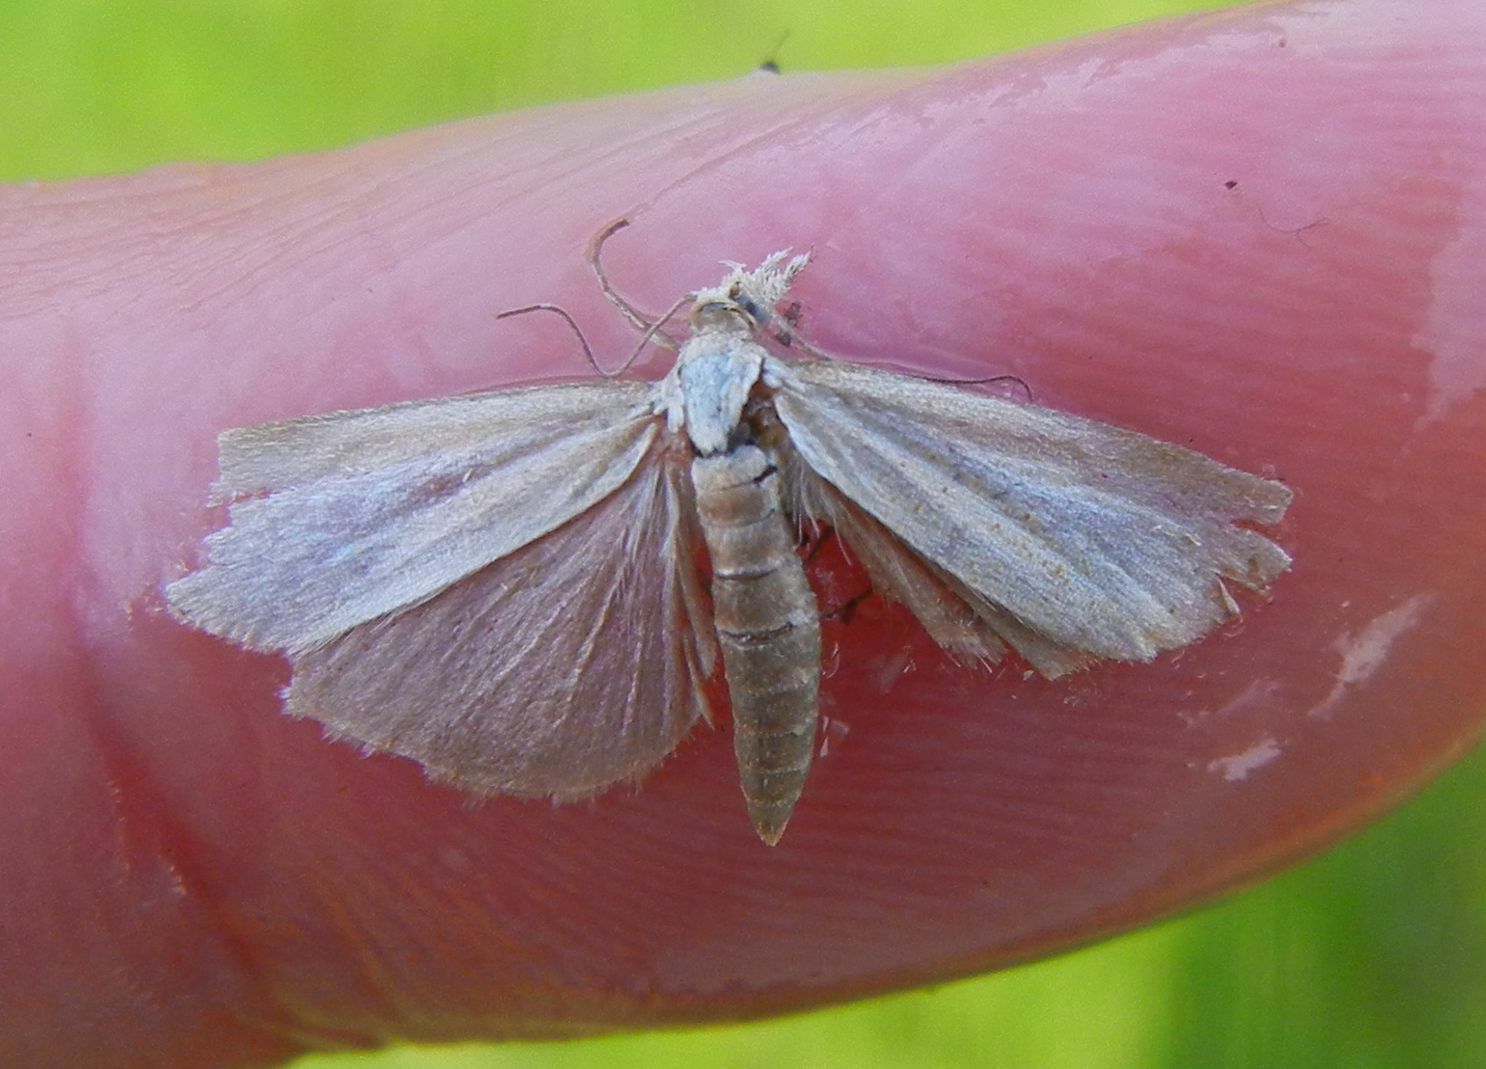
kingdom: Animalia
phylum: Arthropoda
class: Insecta
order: Lepidoptera
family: Crambidae
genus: Agriphila
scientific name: Agriphila straminella
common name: Straw grass-veneer
